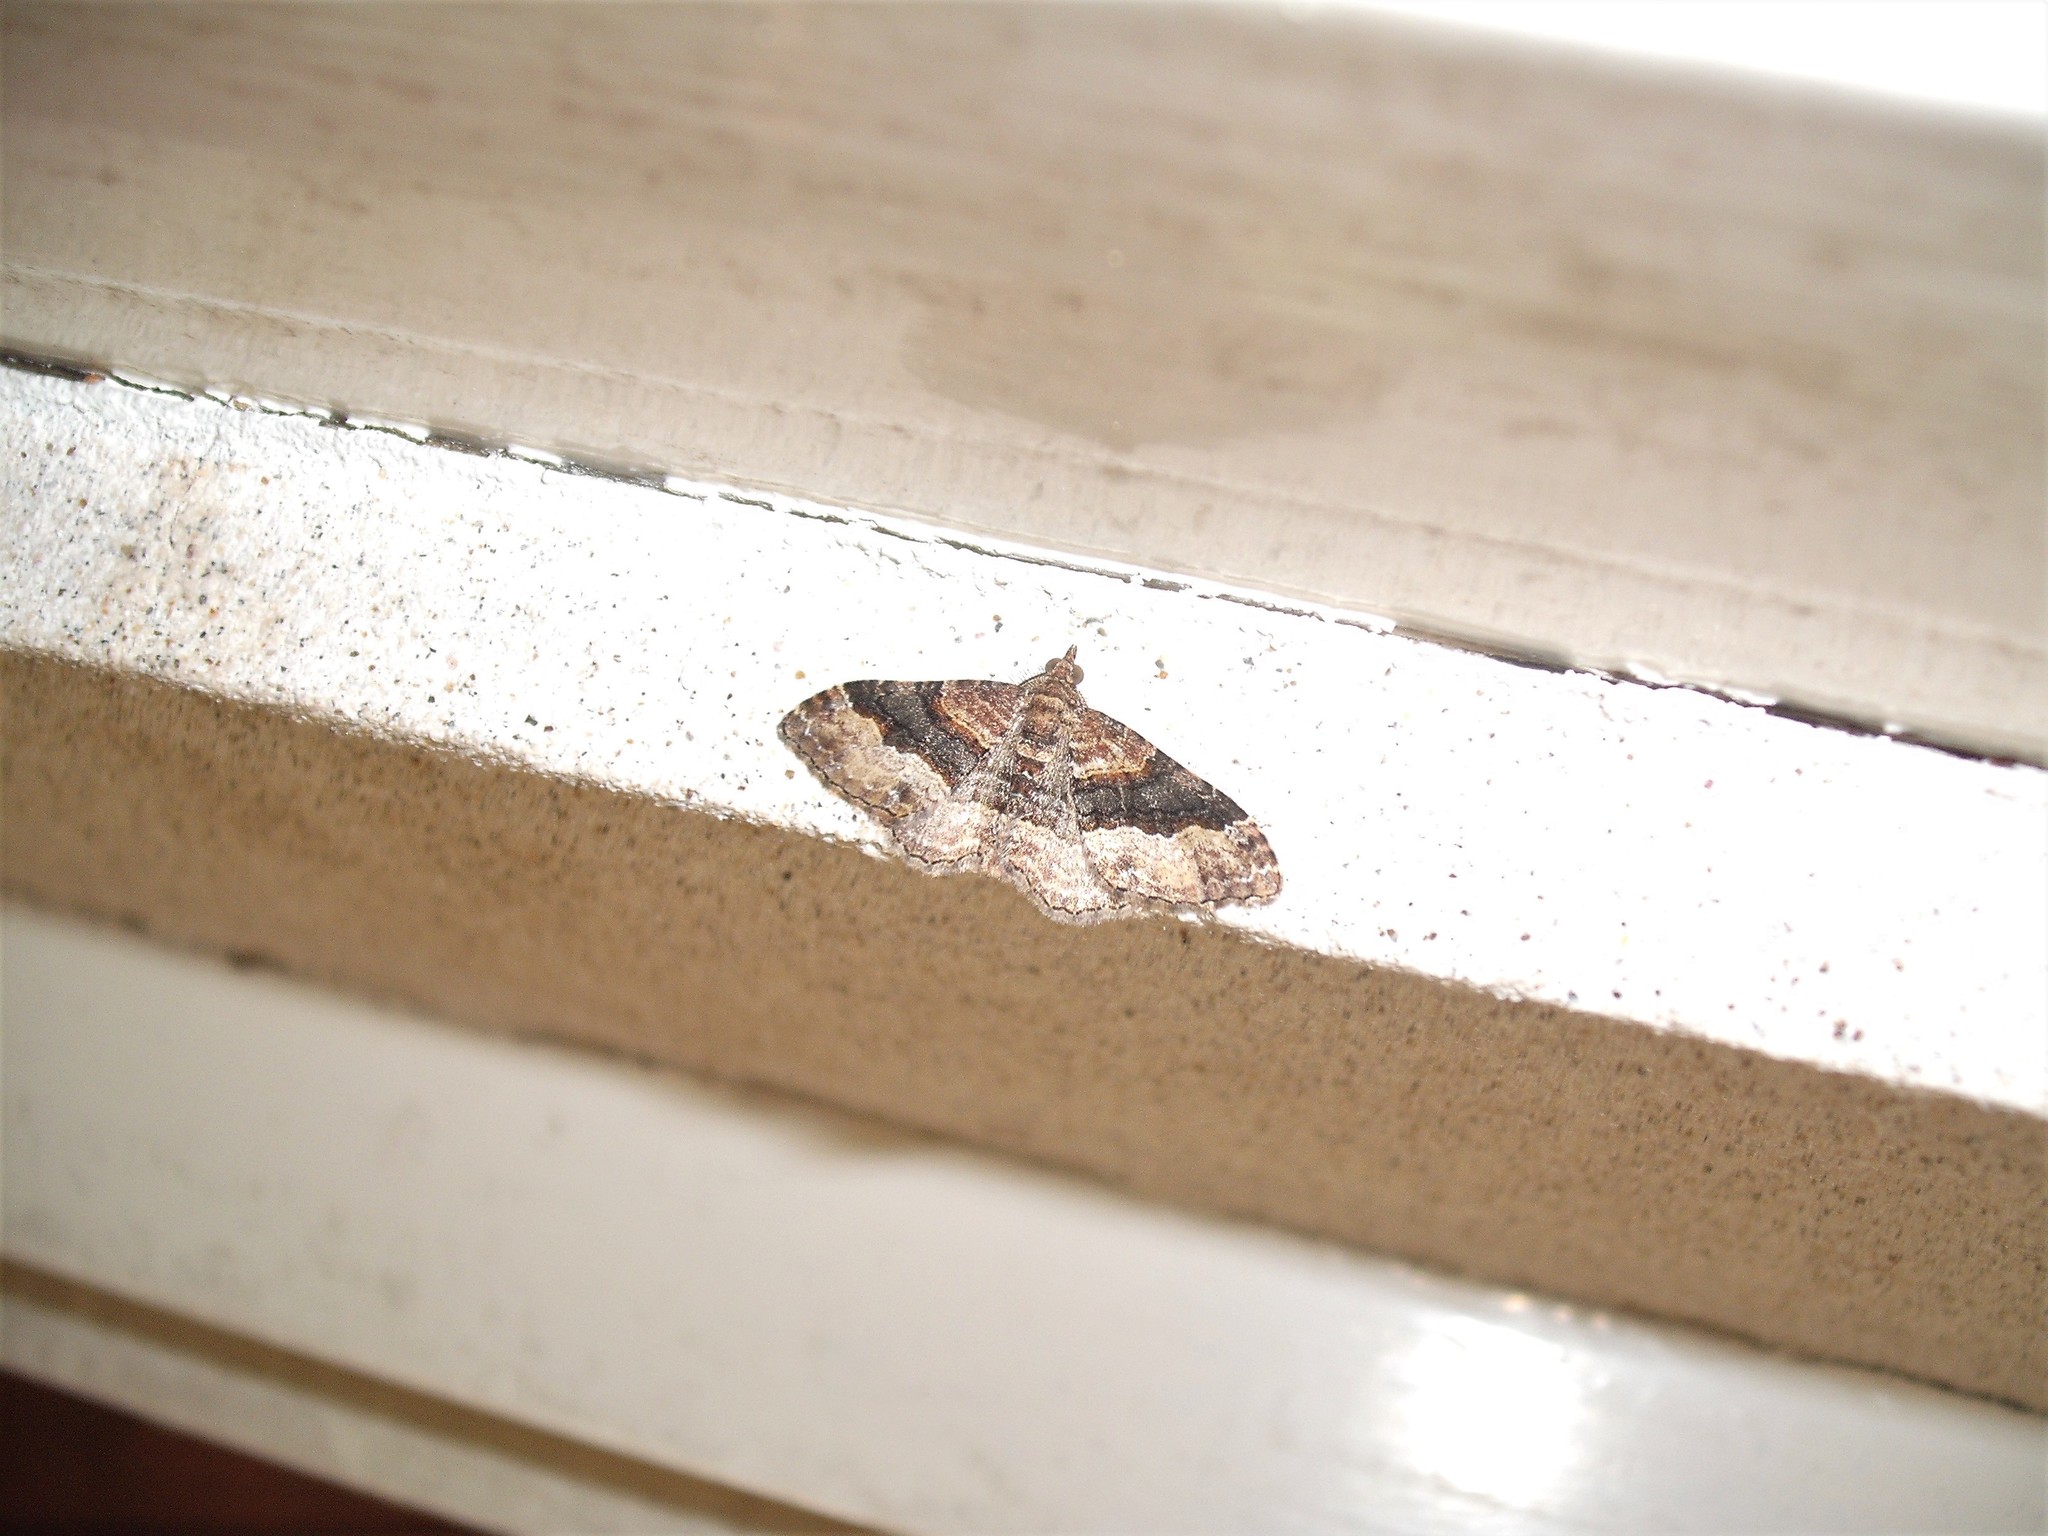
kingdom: Animalia
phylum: Arthropoda
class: Insecta
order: Lepidoptera
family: Geometridae
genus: Epyaxa
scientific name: Epyaxa lucidata
